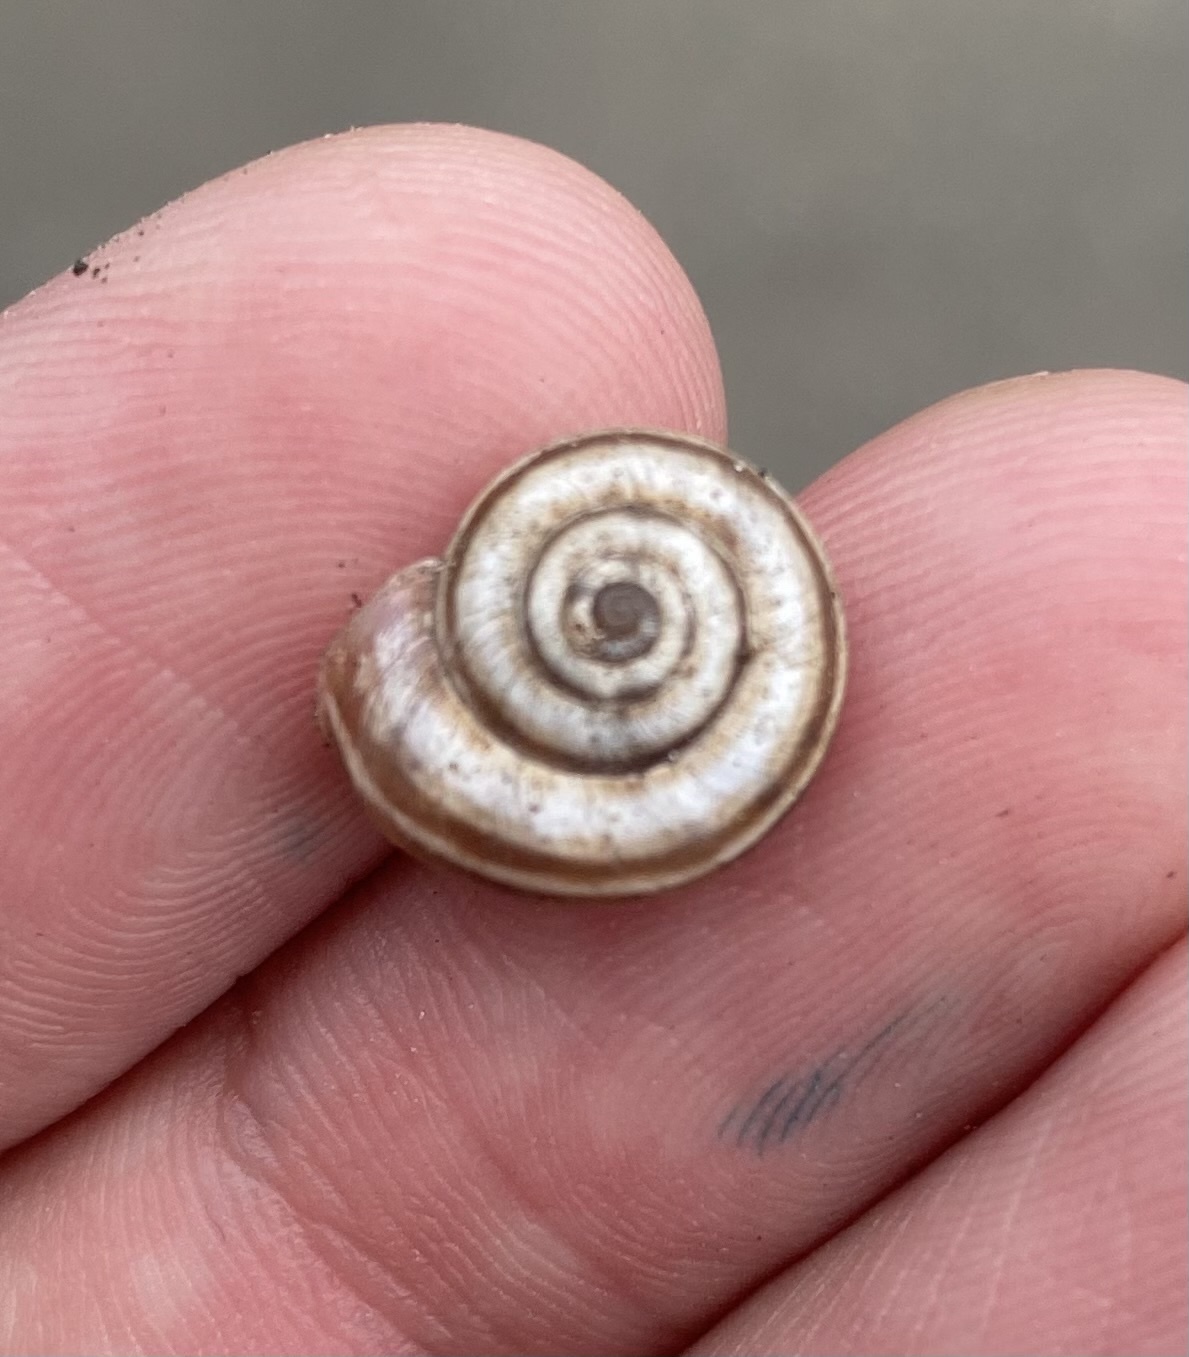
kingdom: Animalia
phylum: Mollusca
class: Gastropoda
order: Stylommatophora
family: Geomitridae
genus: Xeropicta
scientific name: Xeropicta derbentina
